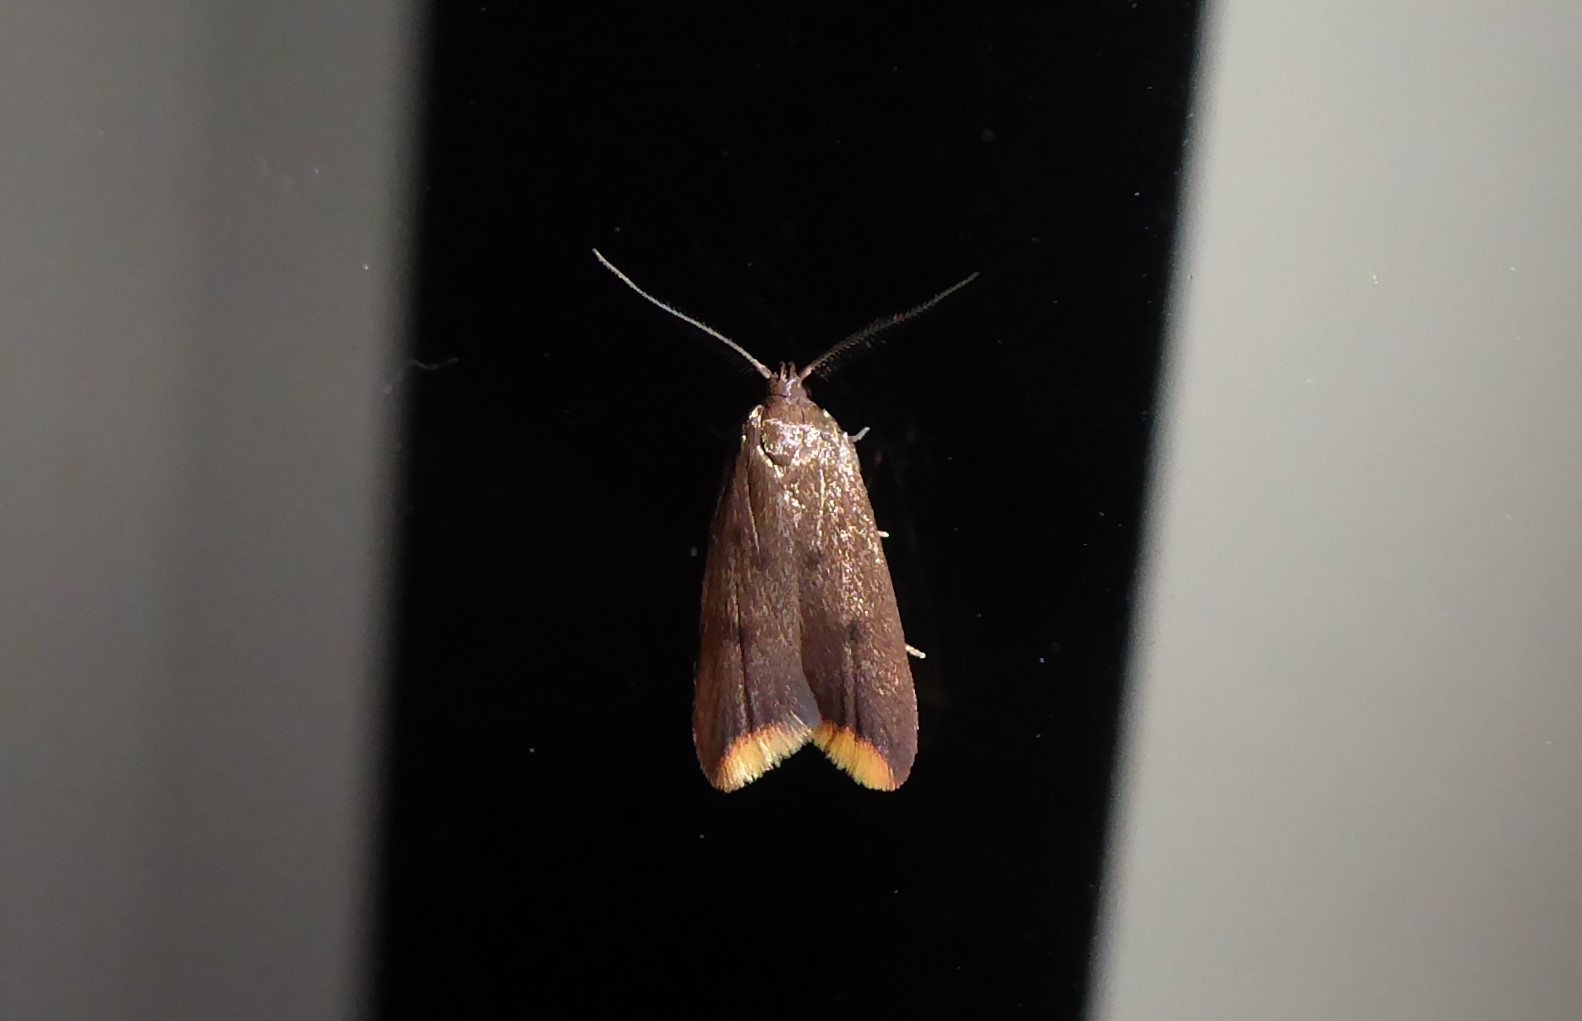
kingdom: Animalia
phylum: Arthropoda
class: Insecta
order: Lepidoptera
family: Oecophoridae
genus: Tachystola
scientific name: Tachystola acroxantha
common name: Ruddy streak
